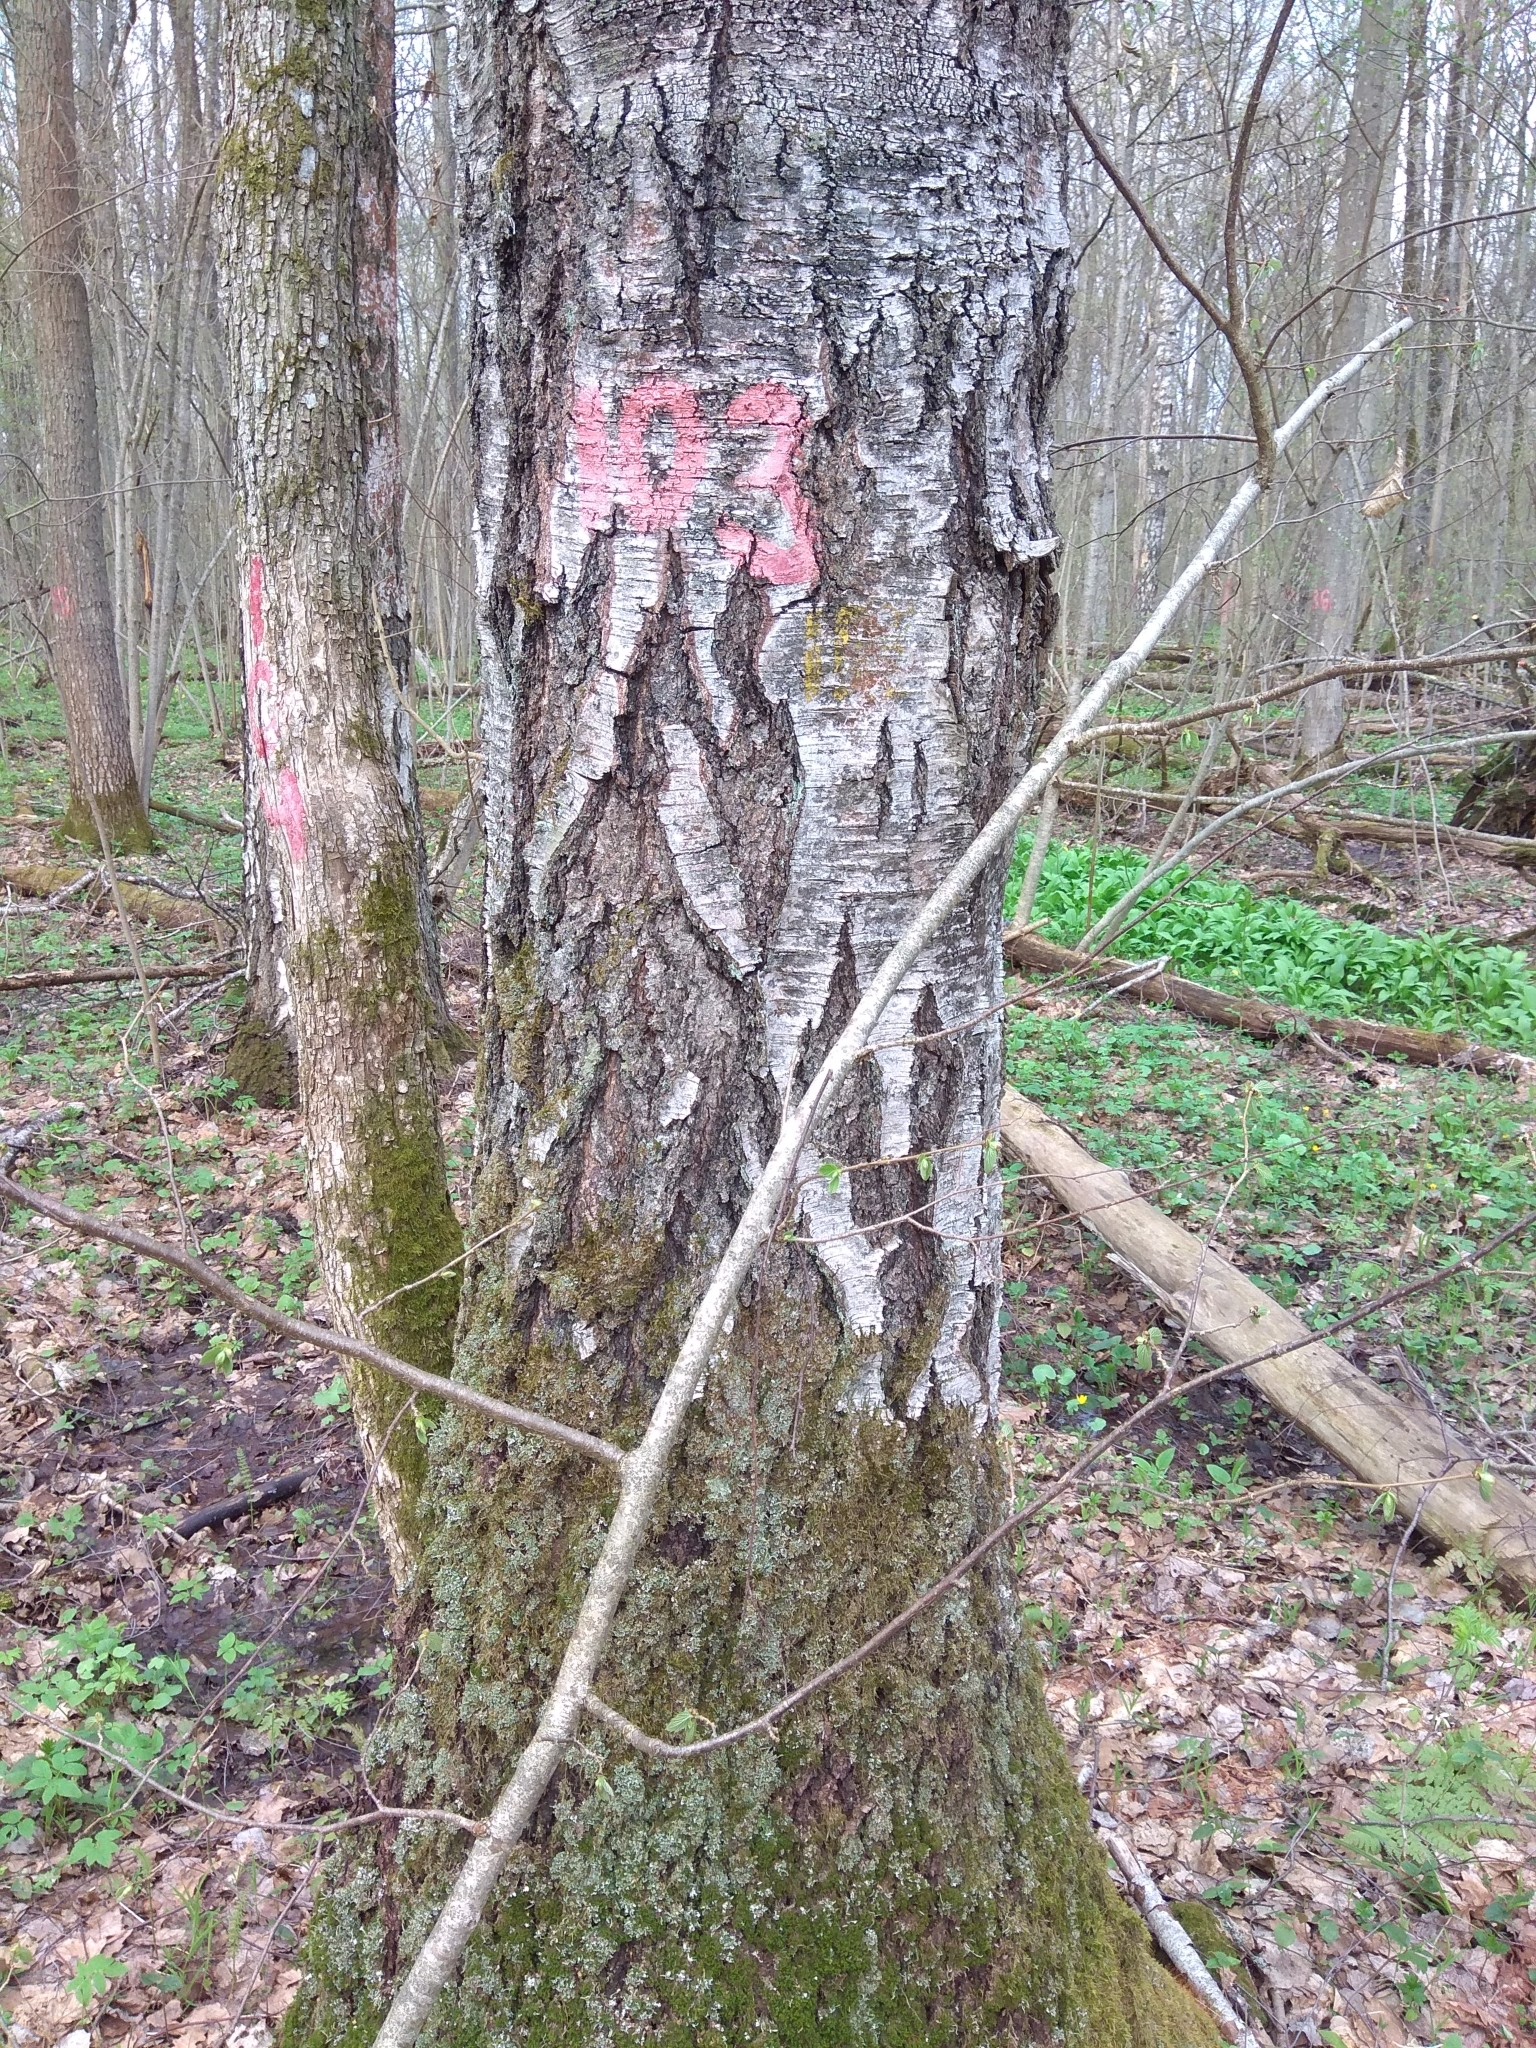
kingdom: Plantae
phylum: Tracheophyta
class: Magnoliopsida
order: Fagales
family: Betulaceae
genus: Betula
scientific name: Betula pendula
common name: Silver birch
